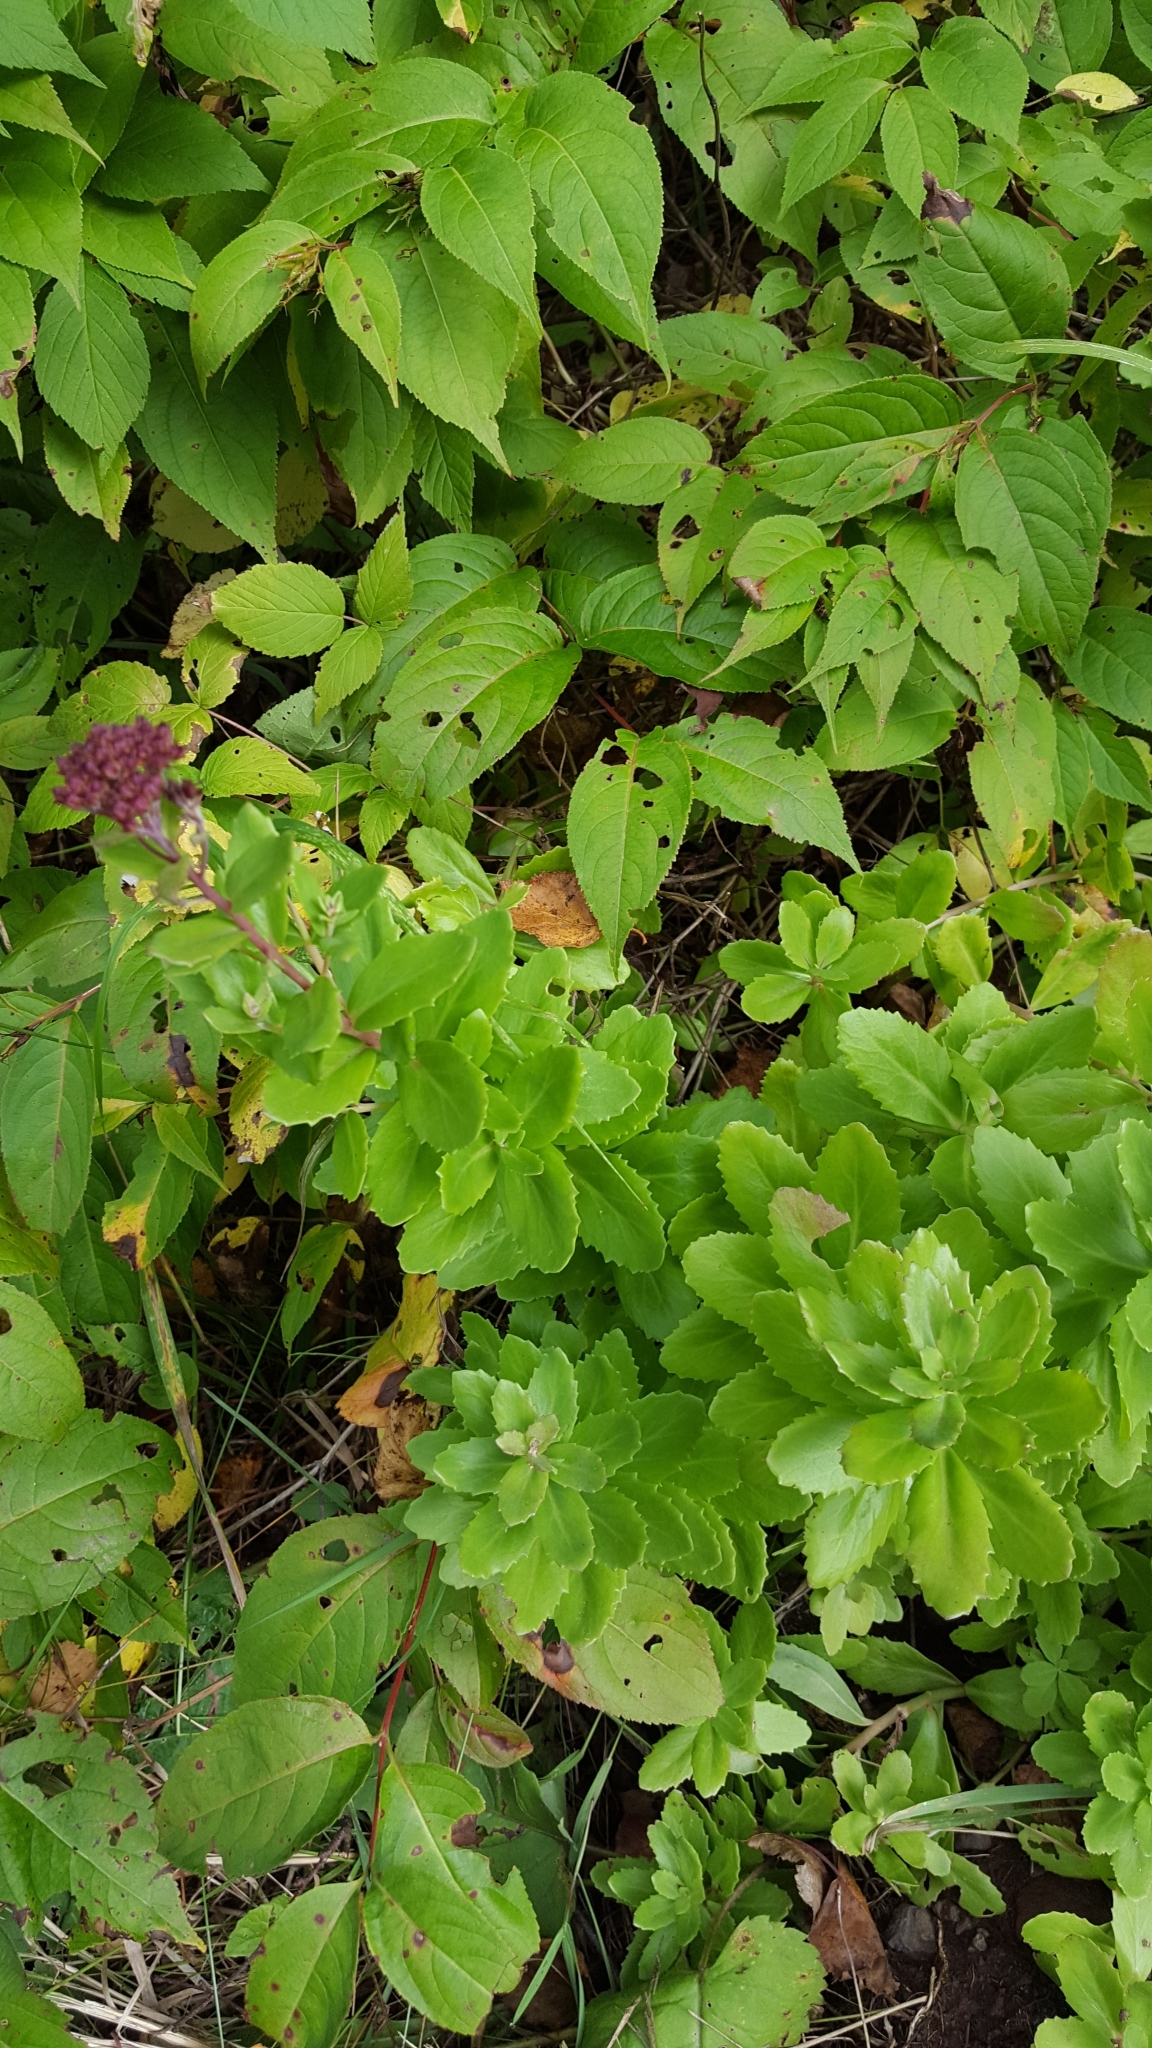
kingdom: Plantae
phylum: Tracheophyta
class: Magnoliopsida
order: Saxifragales
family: Crassulaceae
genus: Hylotelephium
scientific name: Hylotelephium telephium
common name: Live-forever
